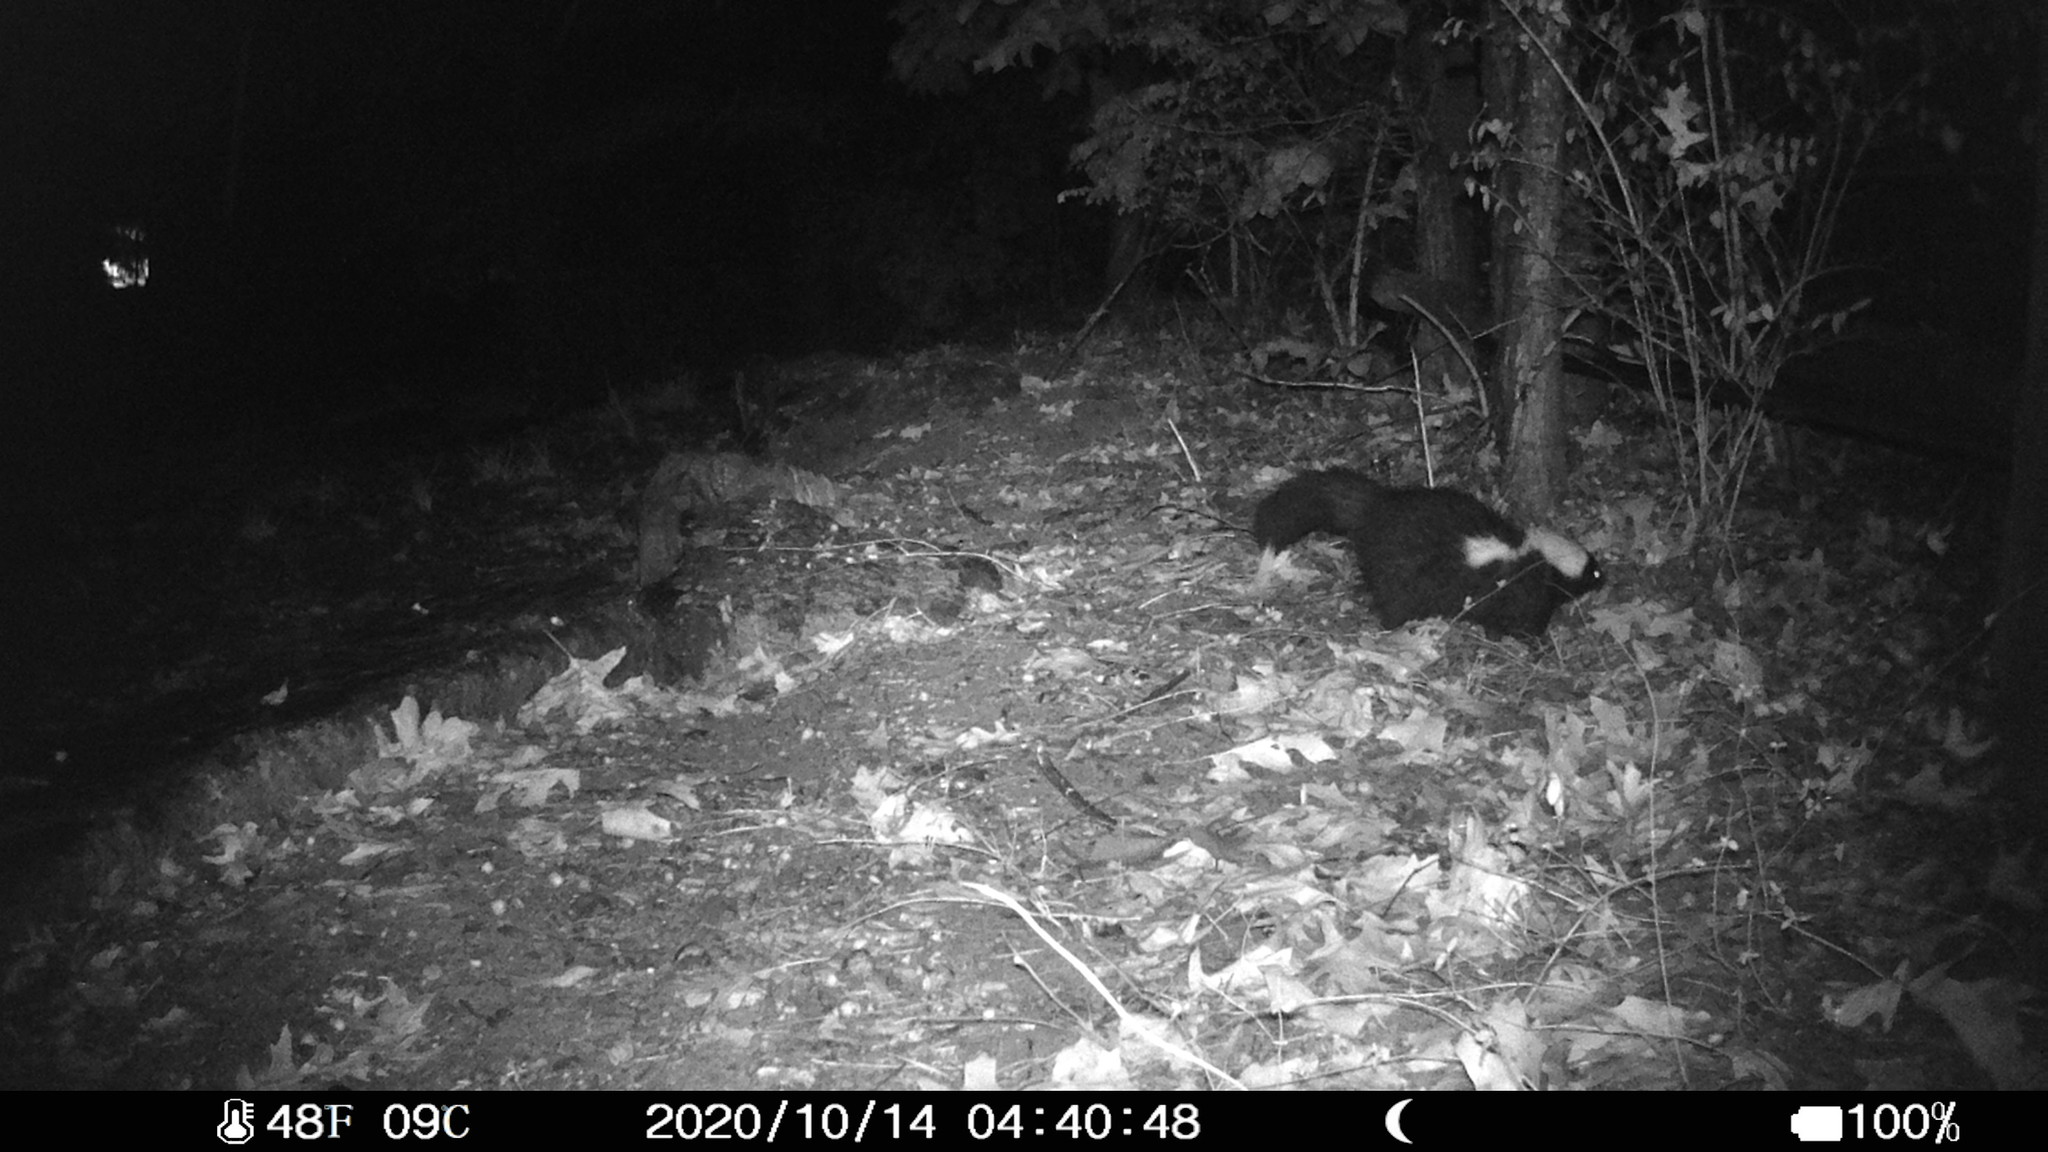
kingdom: Animalia
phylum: Chordata
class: Mammalia
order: Carnivora
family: Mephitidae
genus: Mephitis
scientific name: Mephitis mephitis
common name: Striped skunk
